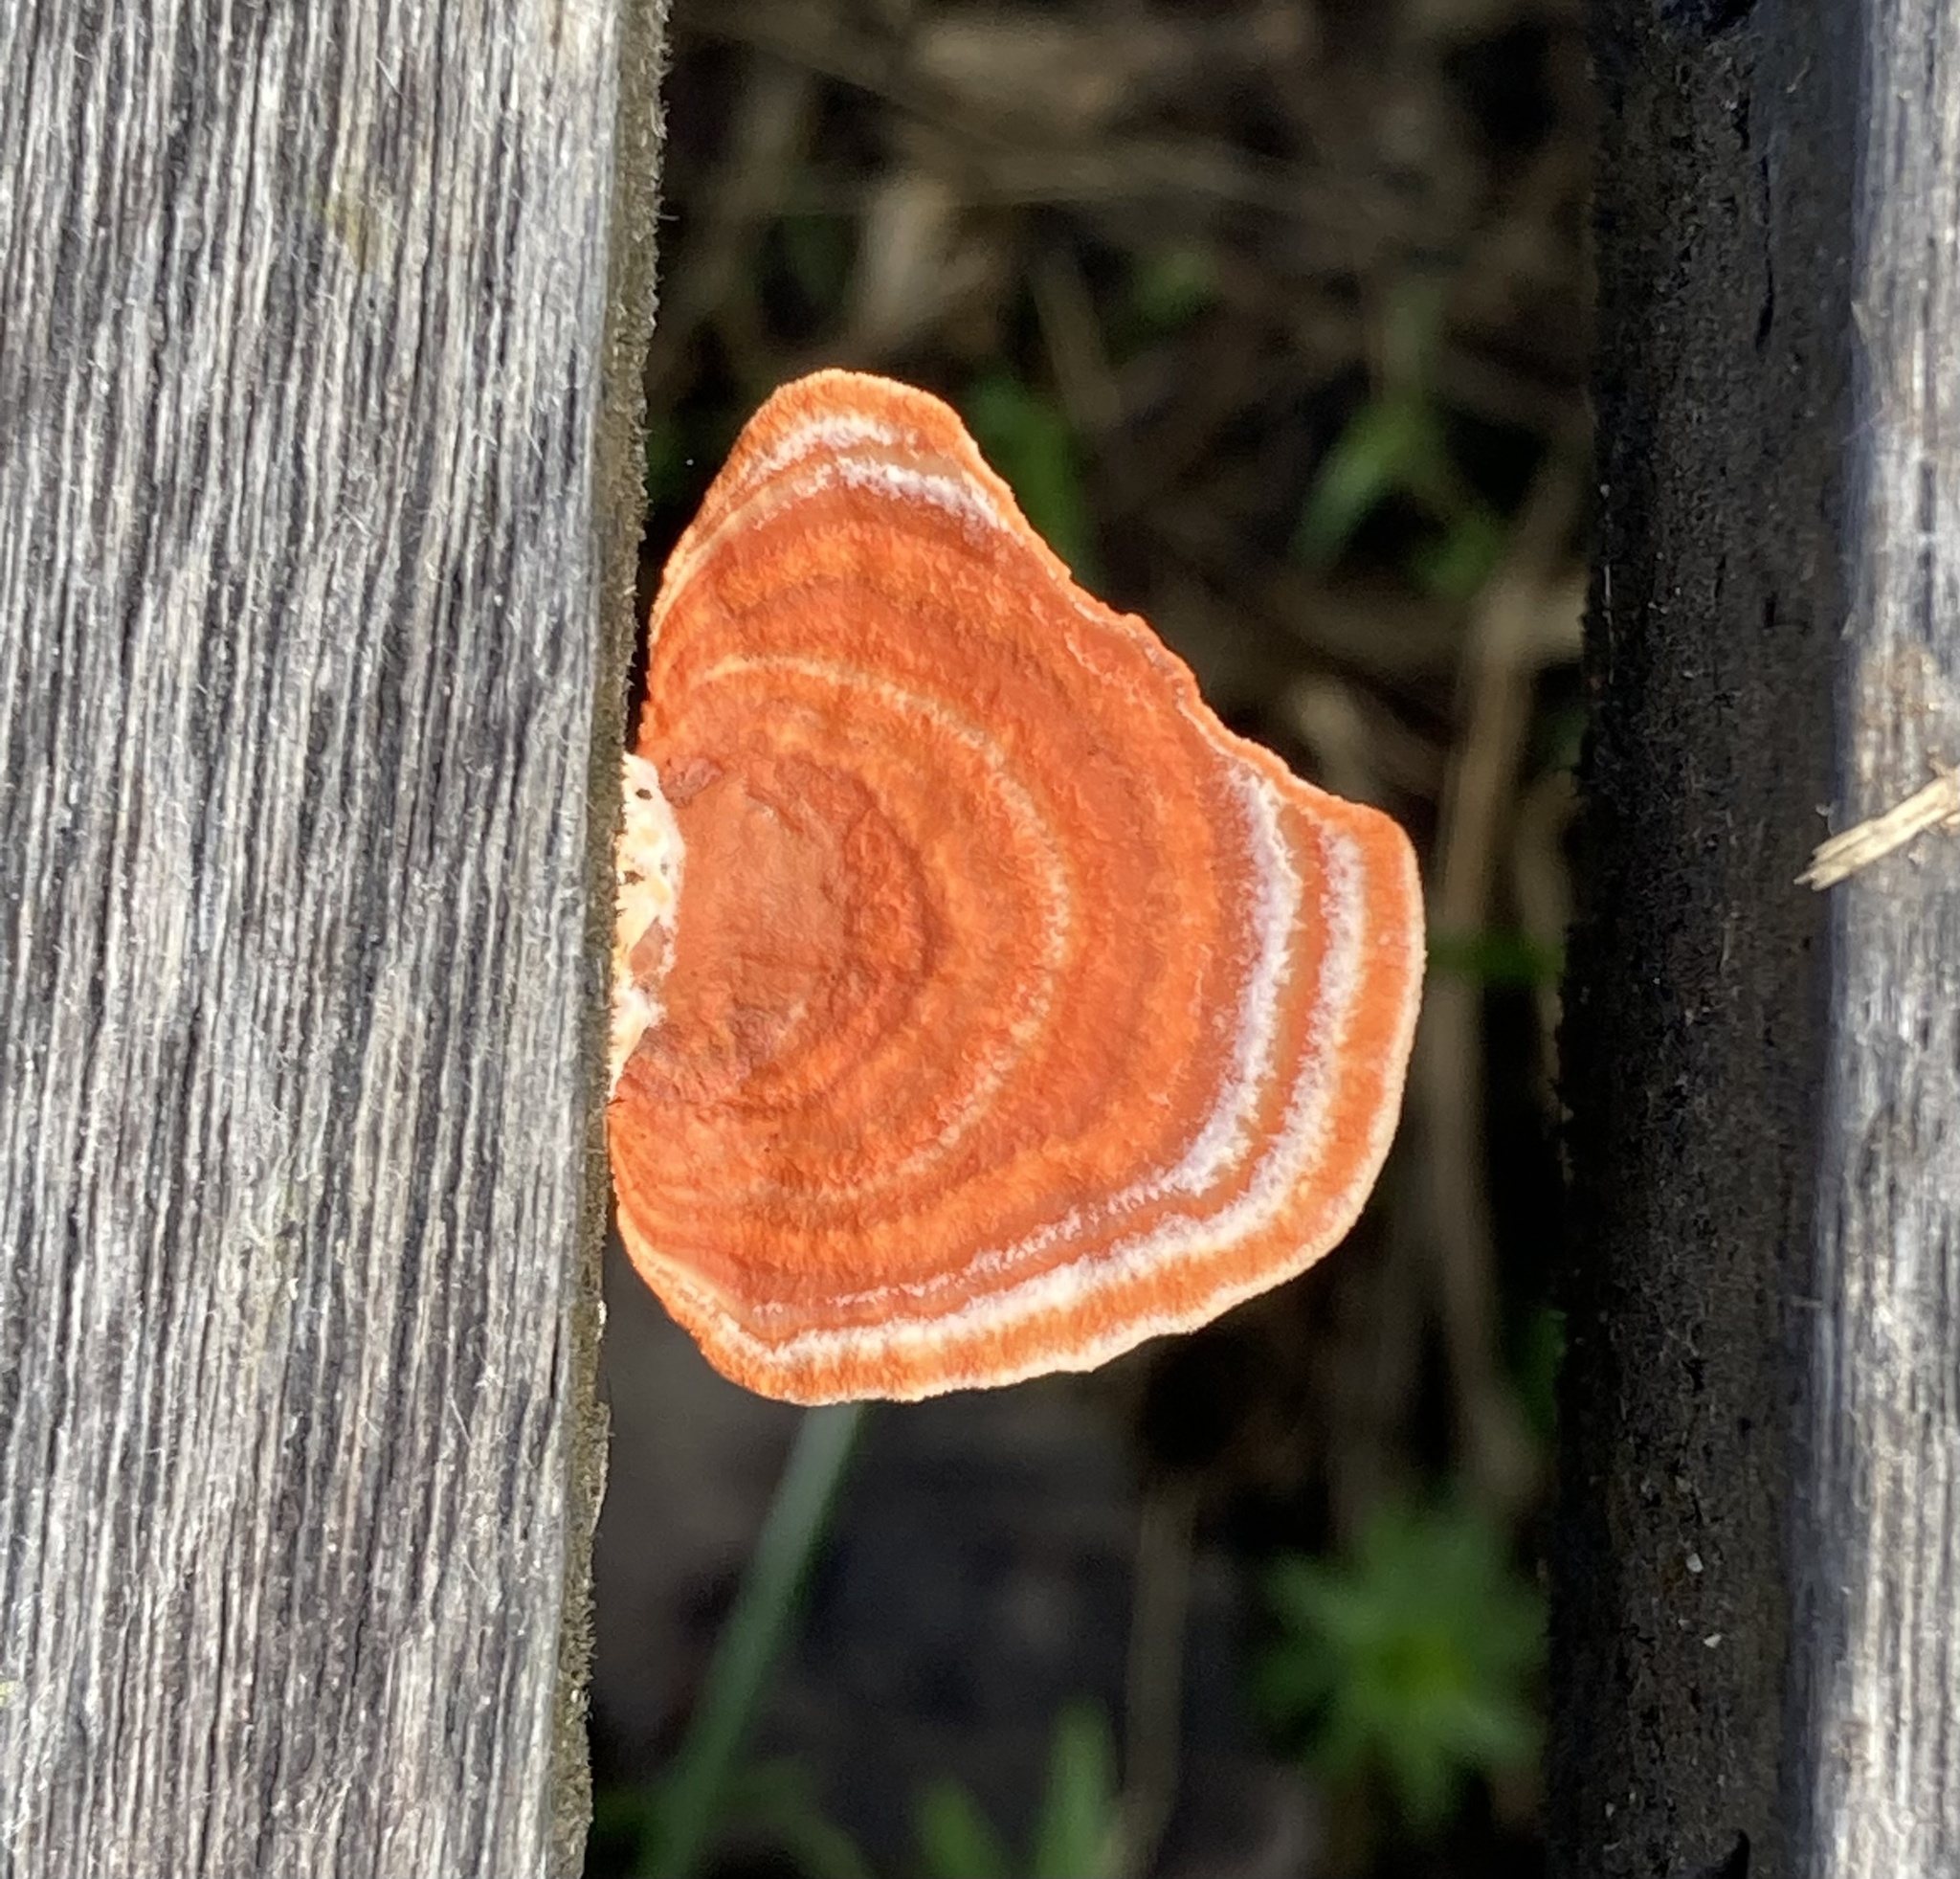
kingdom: Fungi
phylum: Basidiomycota
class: Agaricomycetes
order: Polyporales
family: Polyporaceae
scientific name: Polyporaceae
